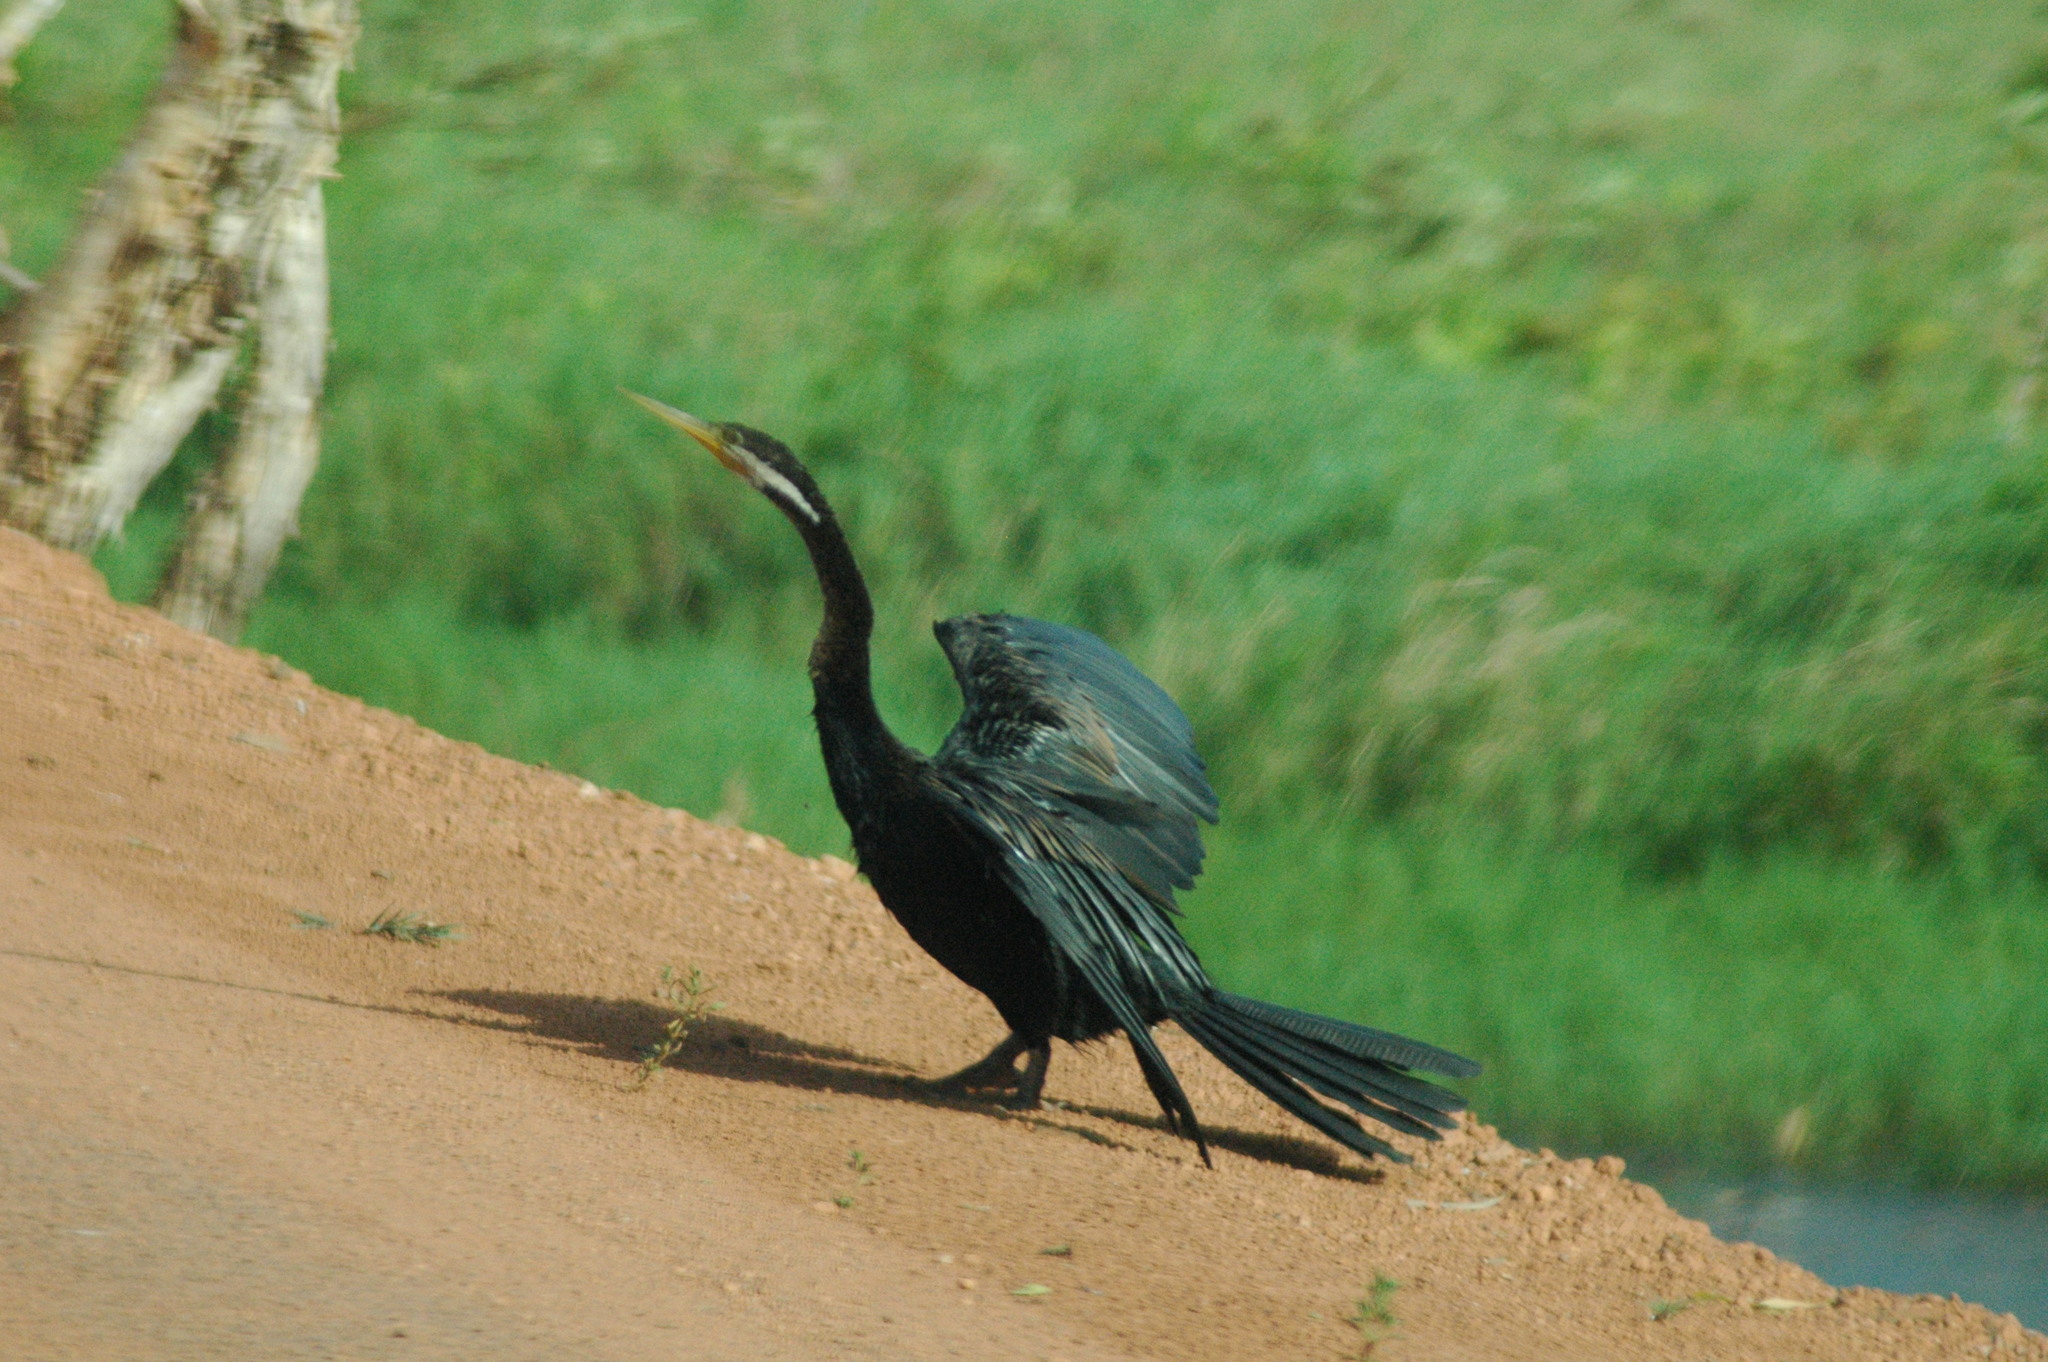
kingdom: Animalia
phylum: Chordata
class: Aves
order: Suliformes
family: Anhingidae
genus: Anhinga
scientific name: Anhinga novaehollandiae
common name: Australasian darter
